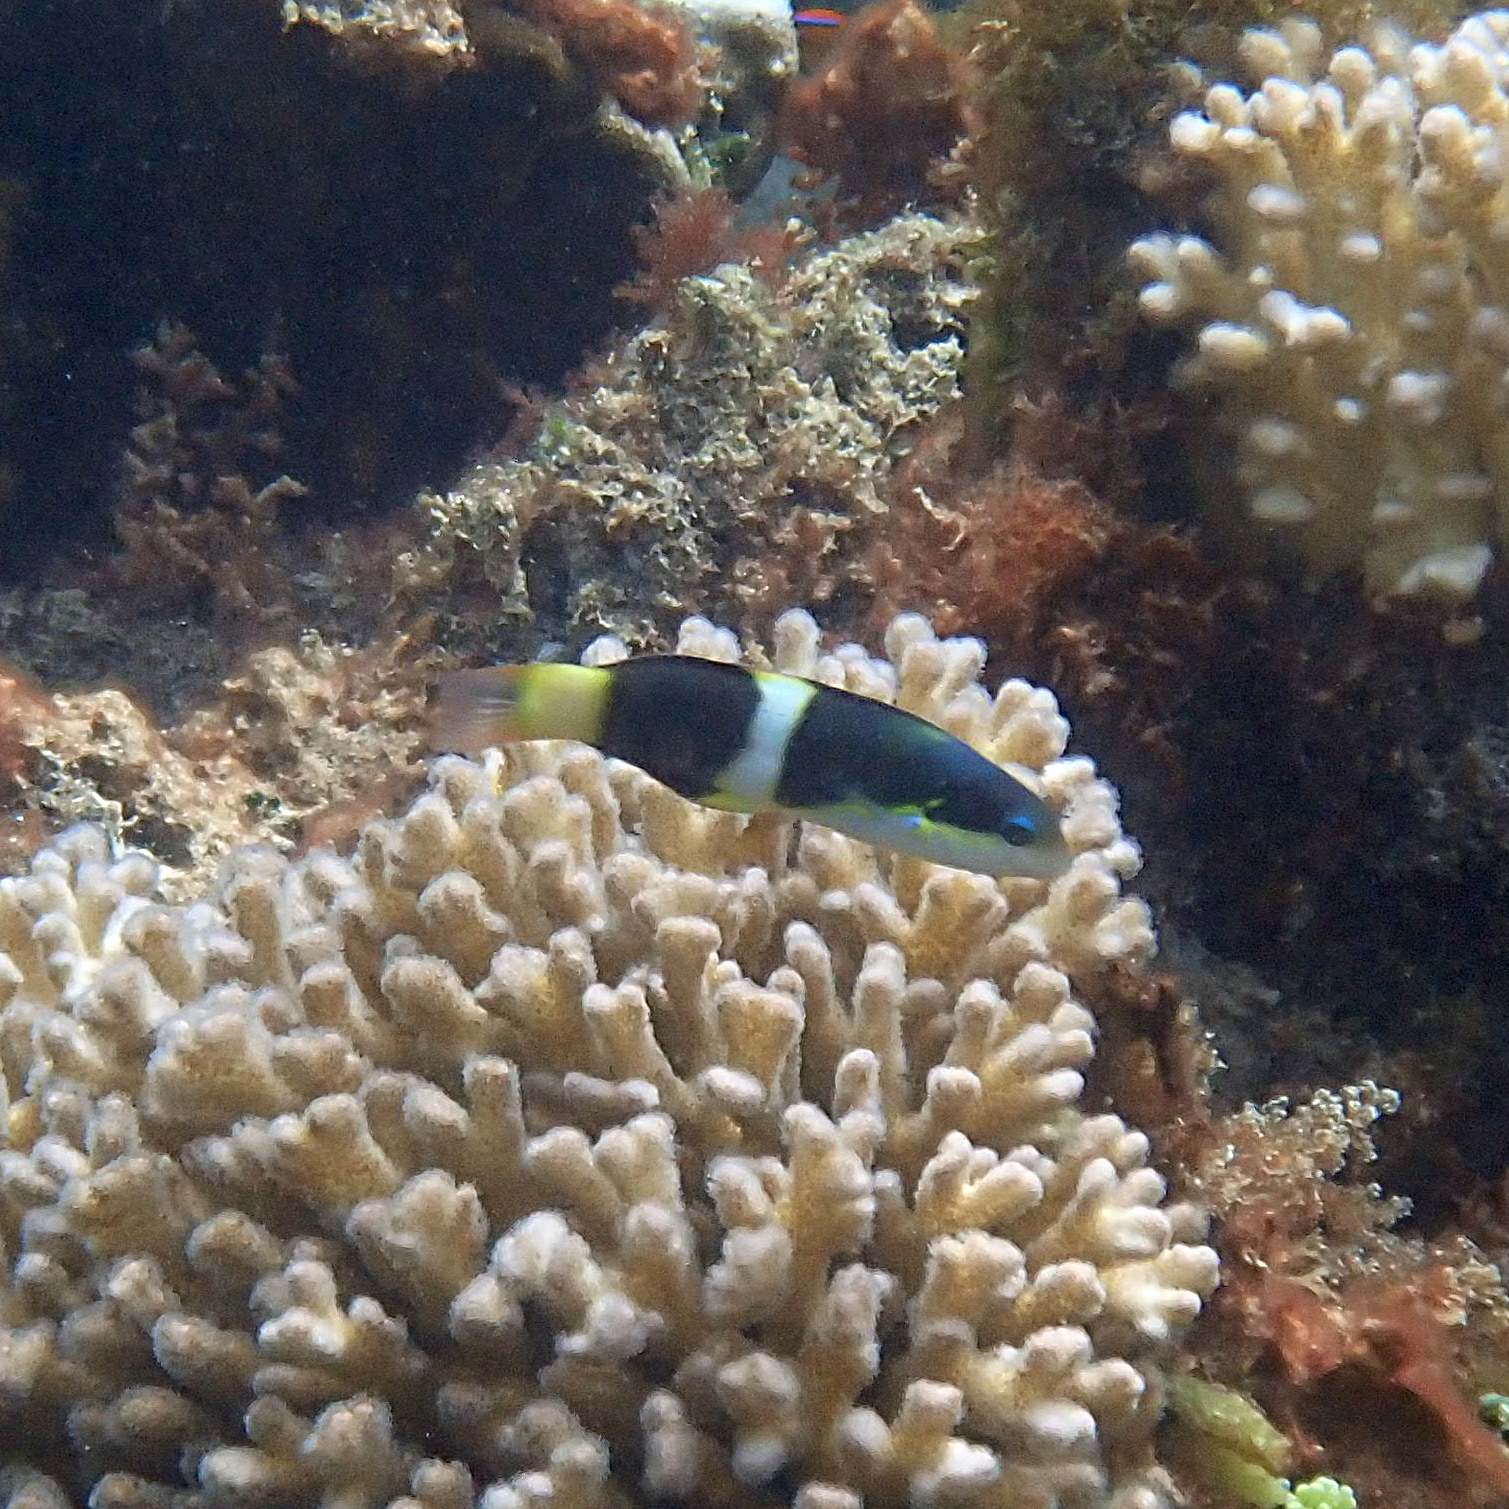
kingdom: Animalia
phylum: Chordata
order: Perciformes
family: Labridae
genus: Thalassoma
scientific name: Thalassoma nigrofasciatum
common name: Black-barred wrasse
